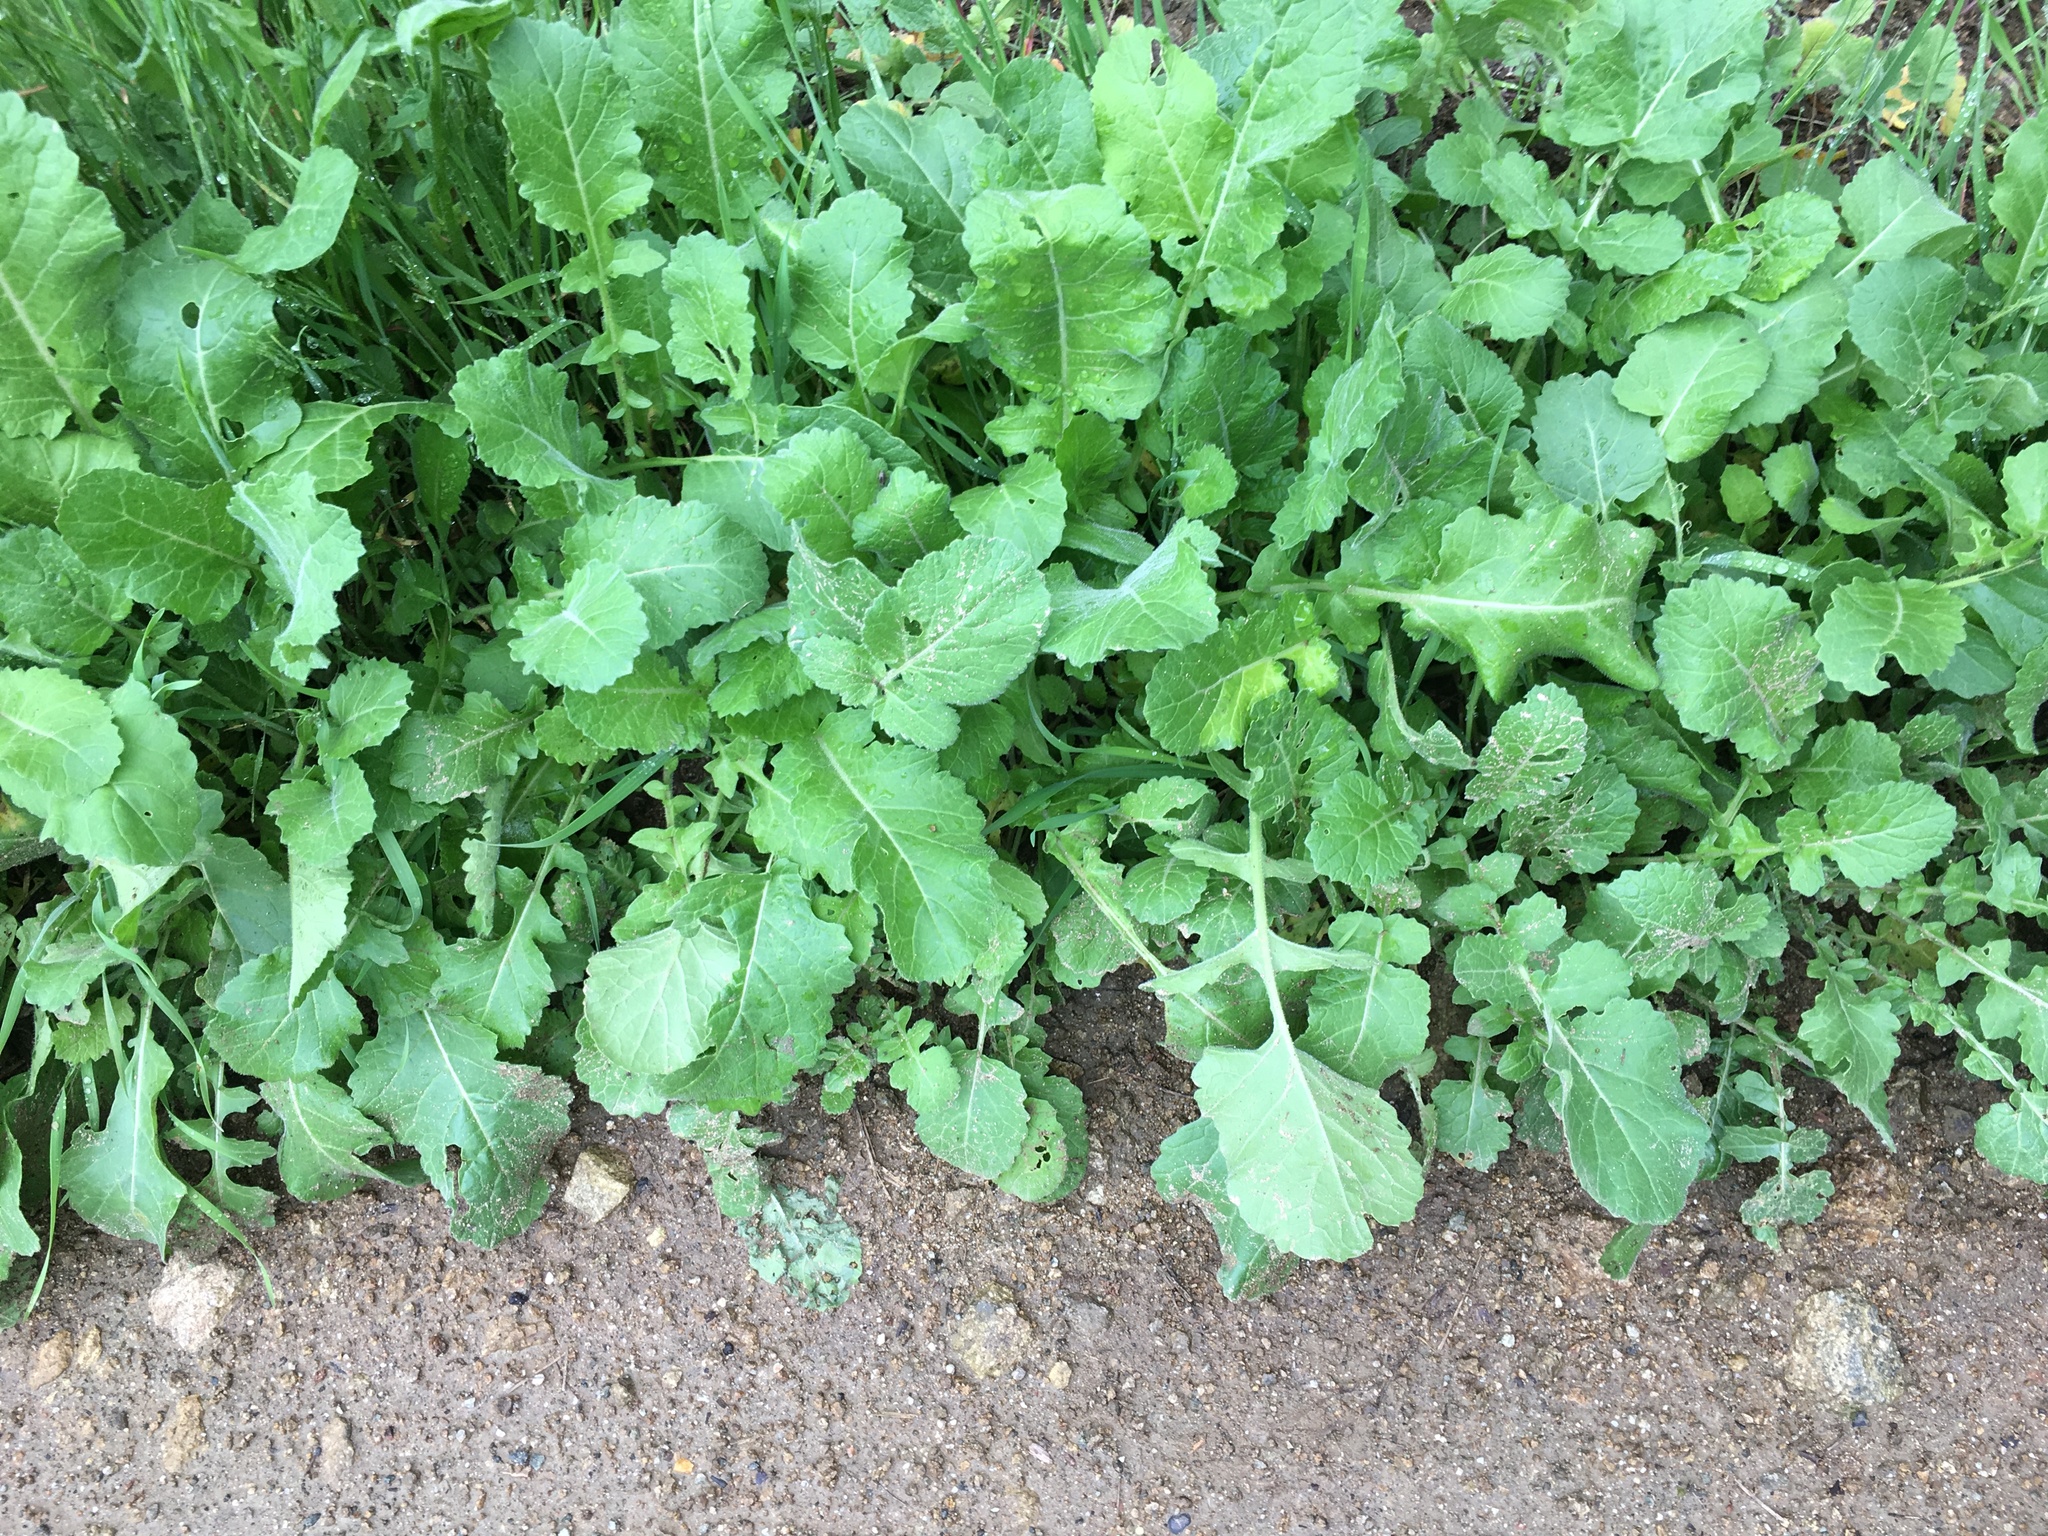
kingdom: Plantae
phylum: Tracheophyta
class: Magnoliopsida
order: Brassicales
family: Brassicaceae
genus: Hirschfeldia
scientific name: Hirschfeldia incana
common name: Hoary mustard
